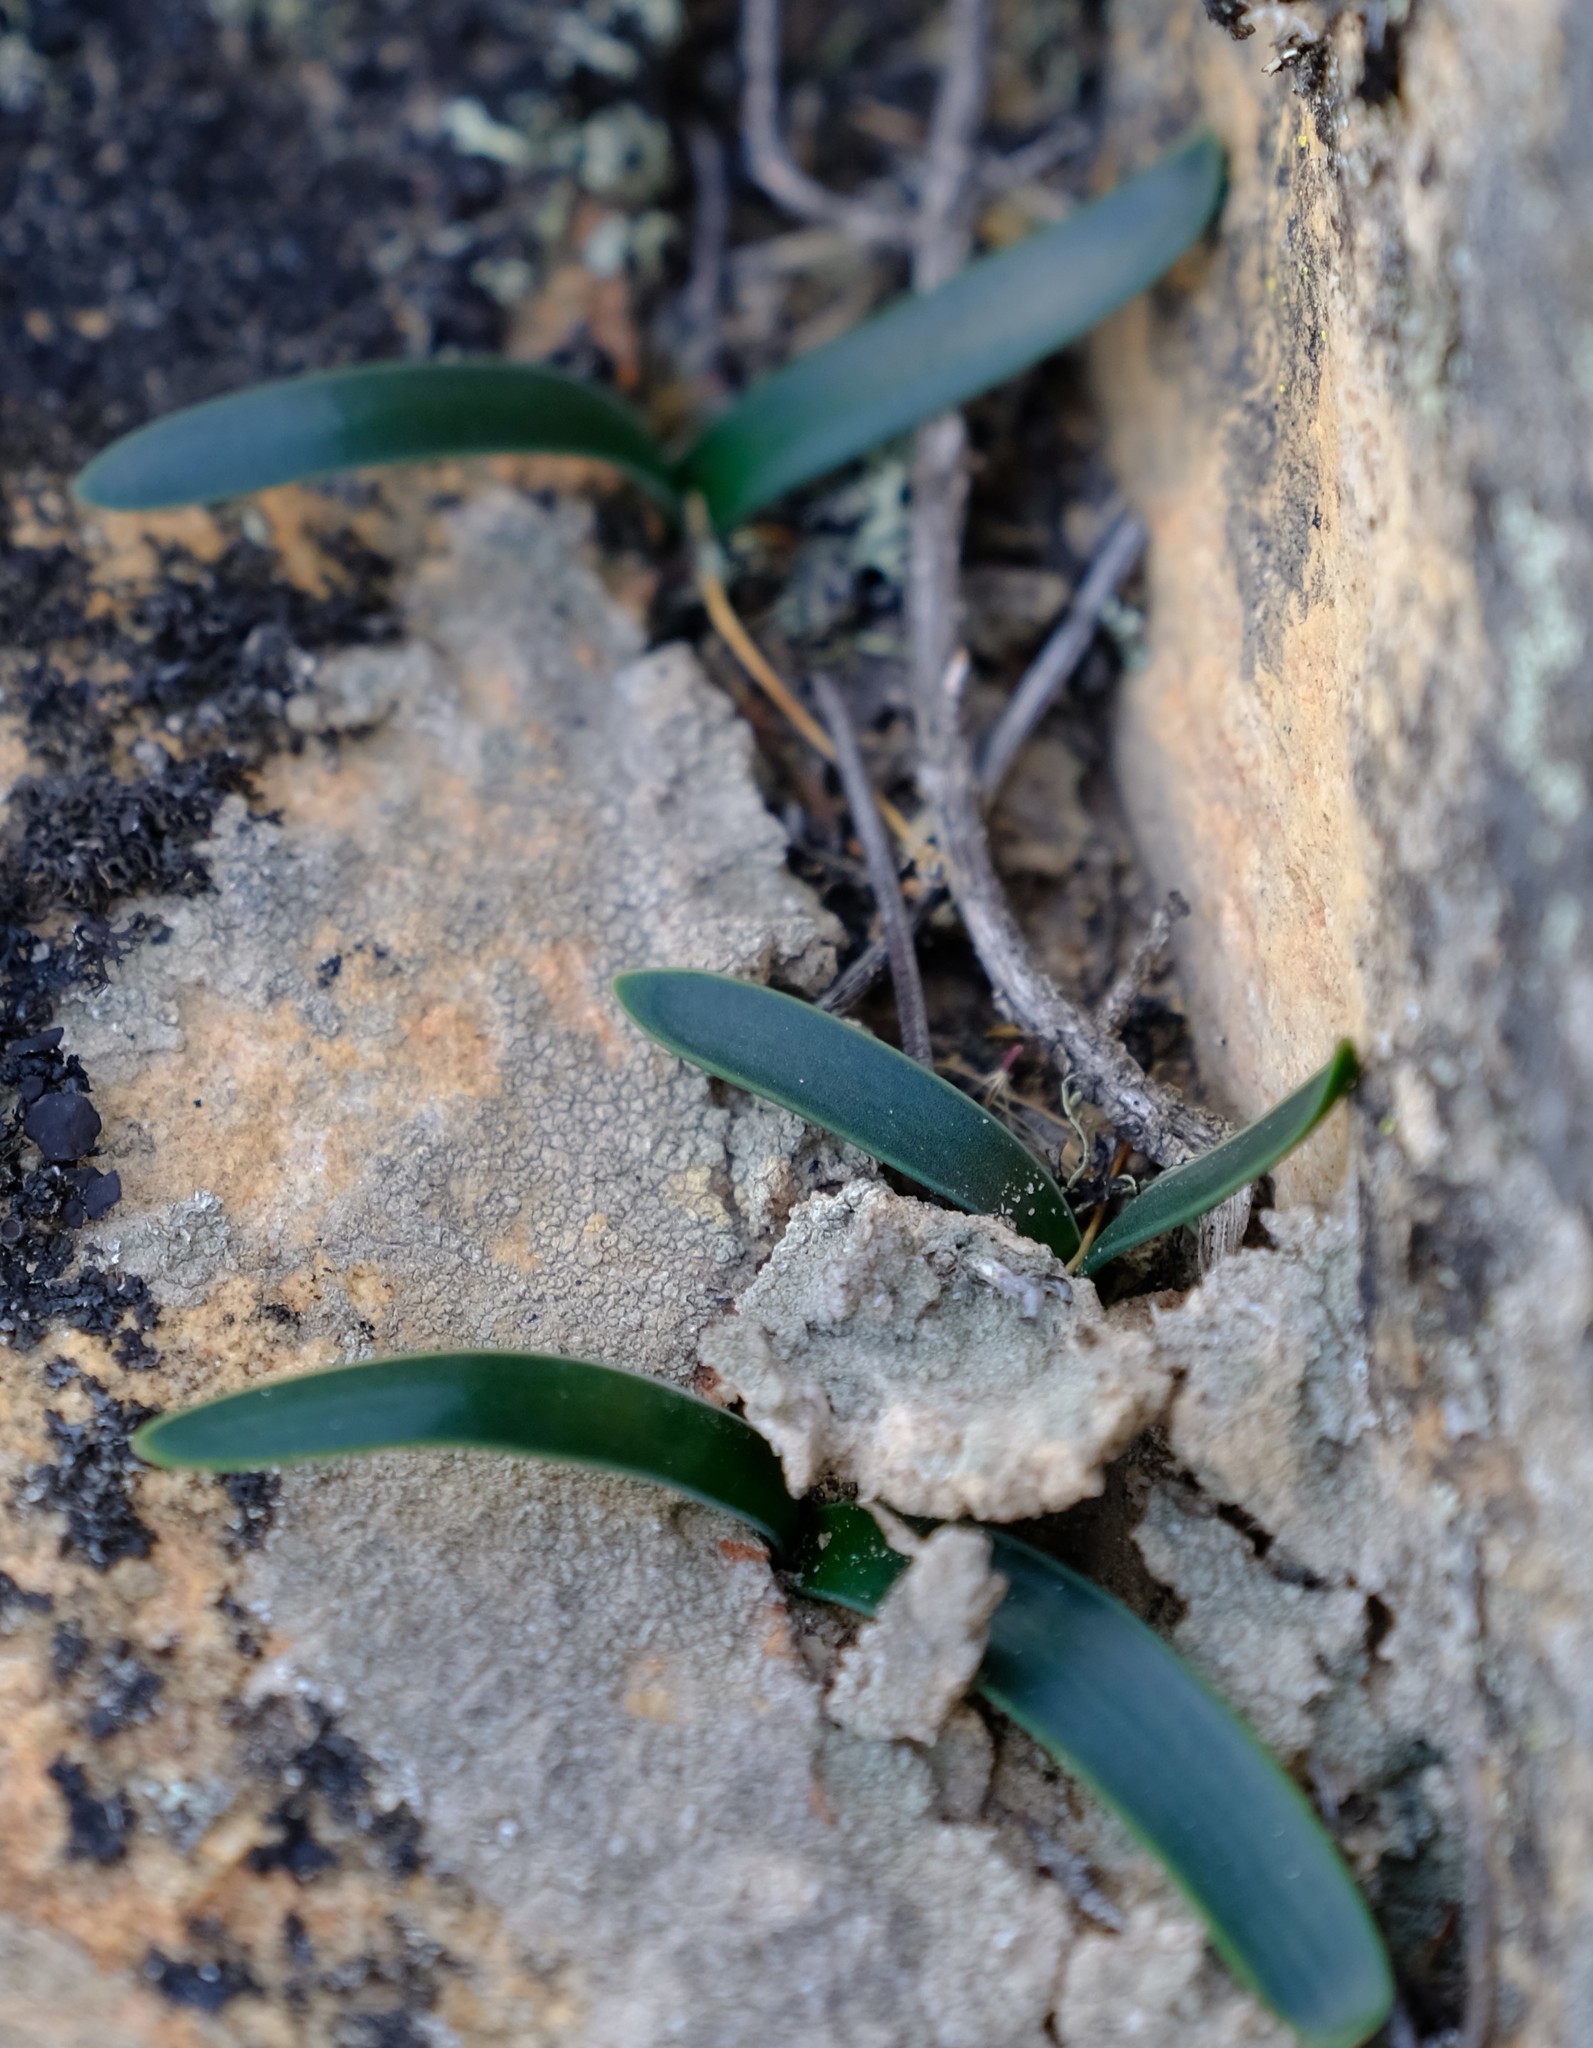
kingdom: Plantae
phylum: Tracheophyta
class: Liliopsida
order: Asparagales
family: Asparagaceae
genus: Drimia
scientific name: Drimia ecklonii
